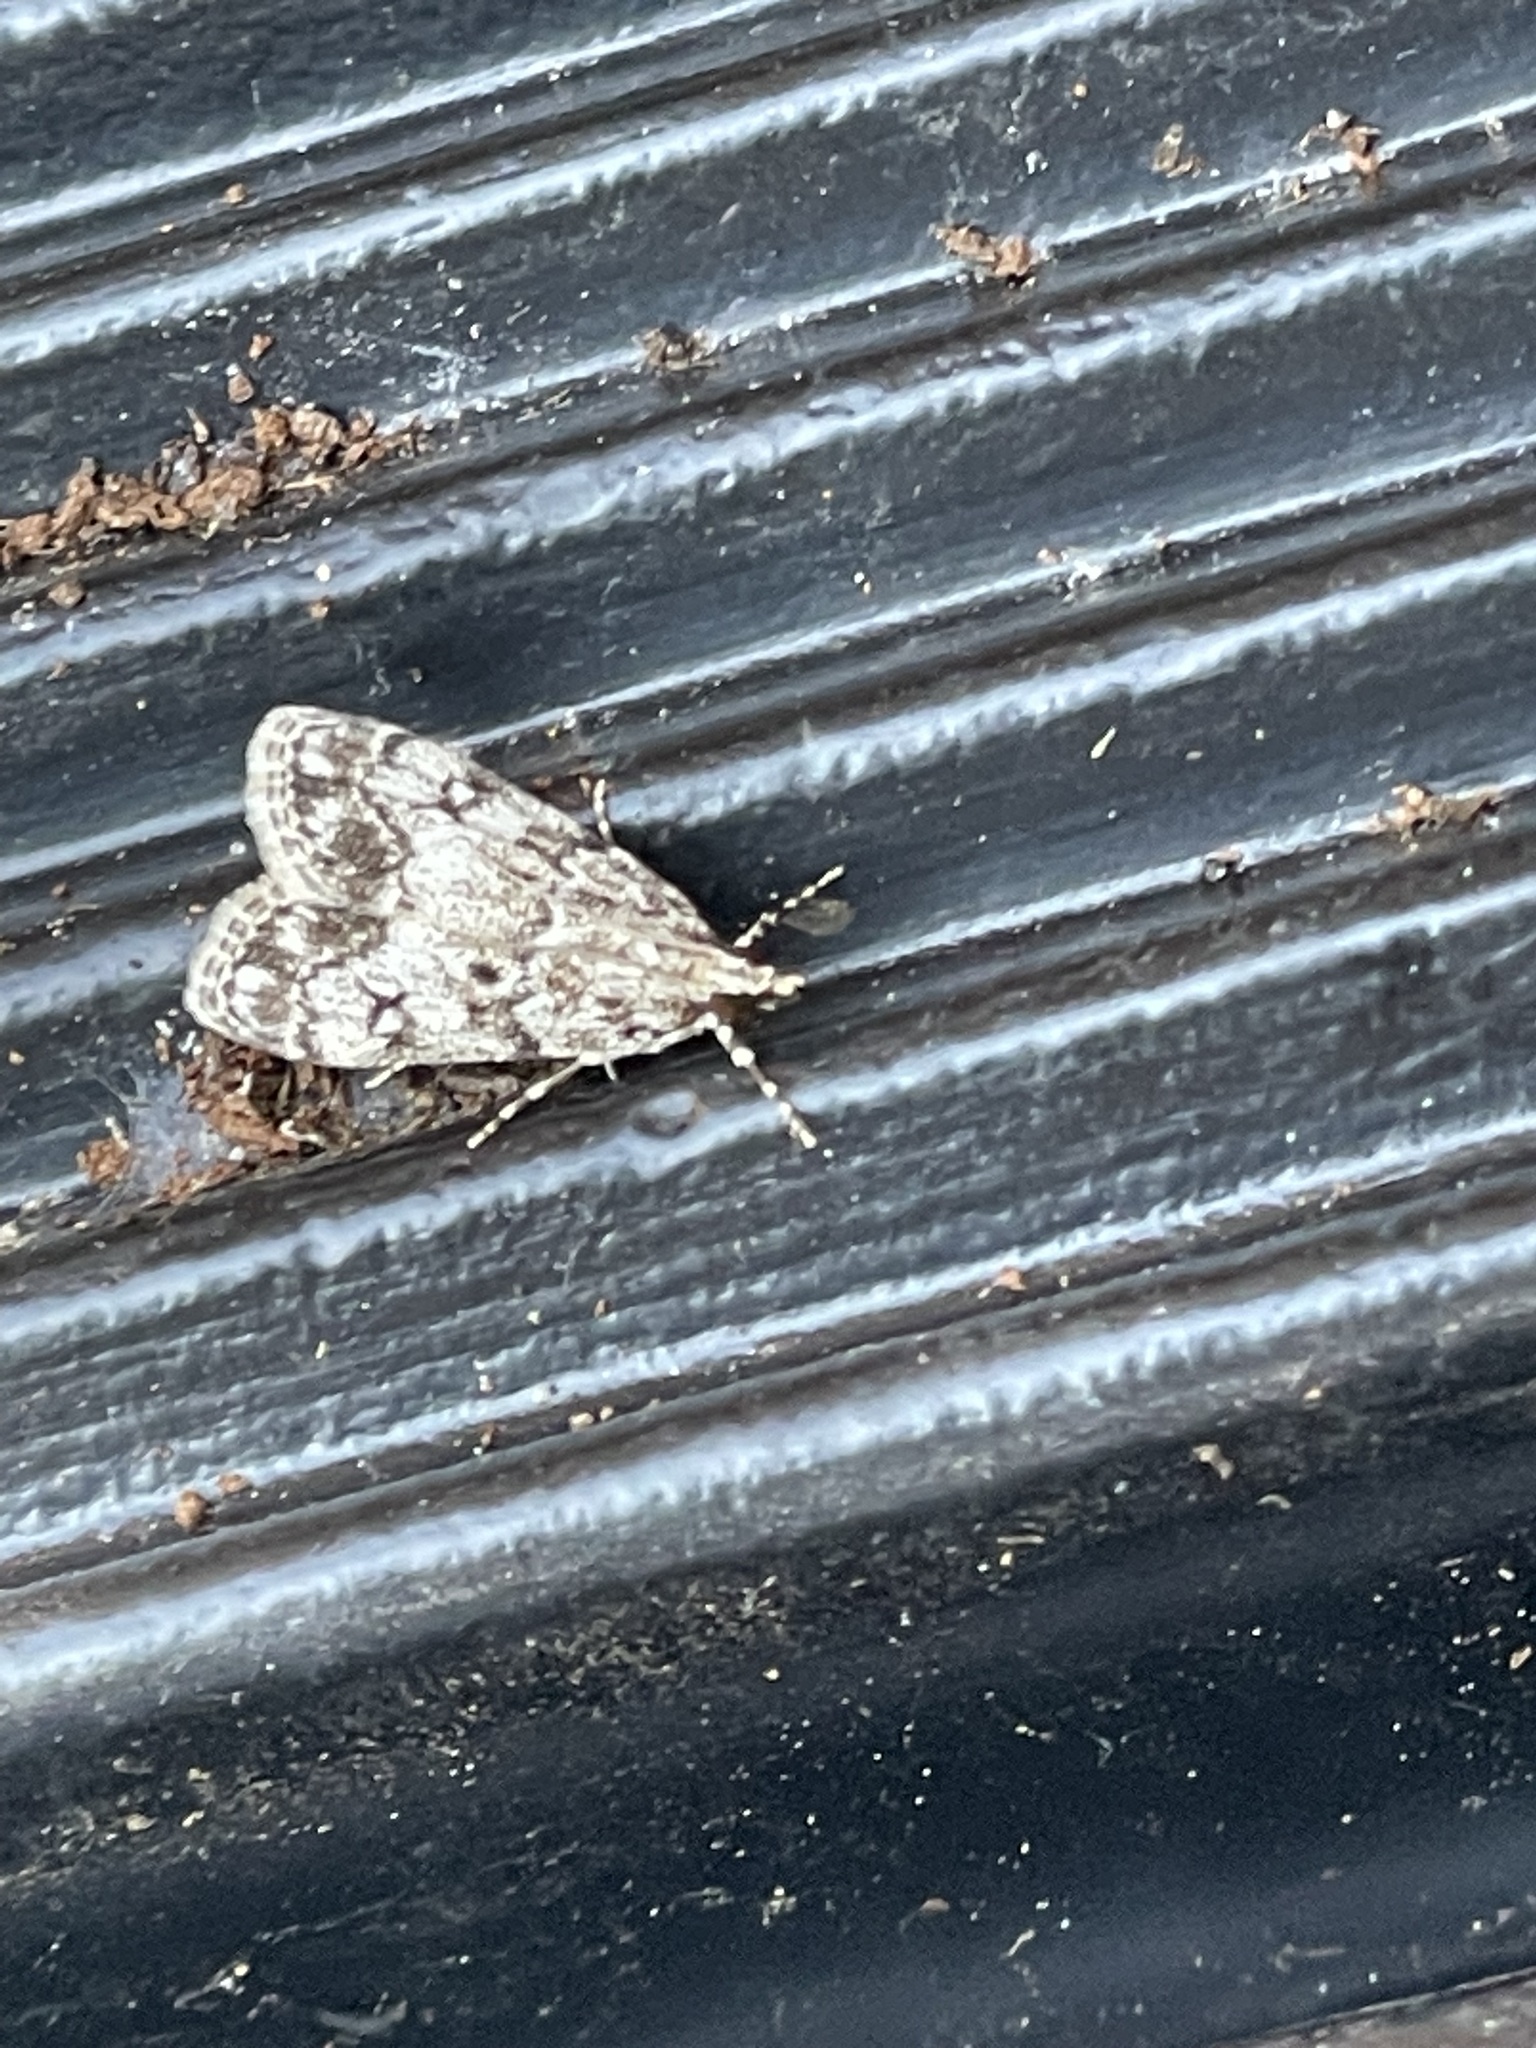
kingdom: Animalia
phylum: Arthropoda
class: Insecta
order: Lepidoptera
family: Crambidae
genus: Eudonia
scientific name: Eudonia lacustrata
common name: Little grey
